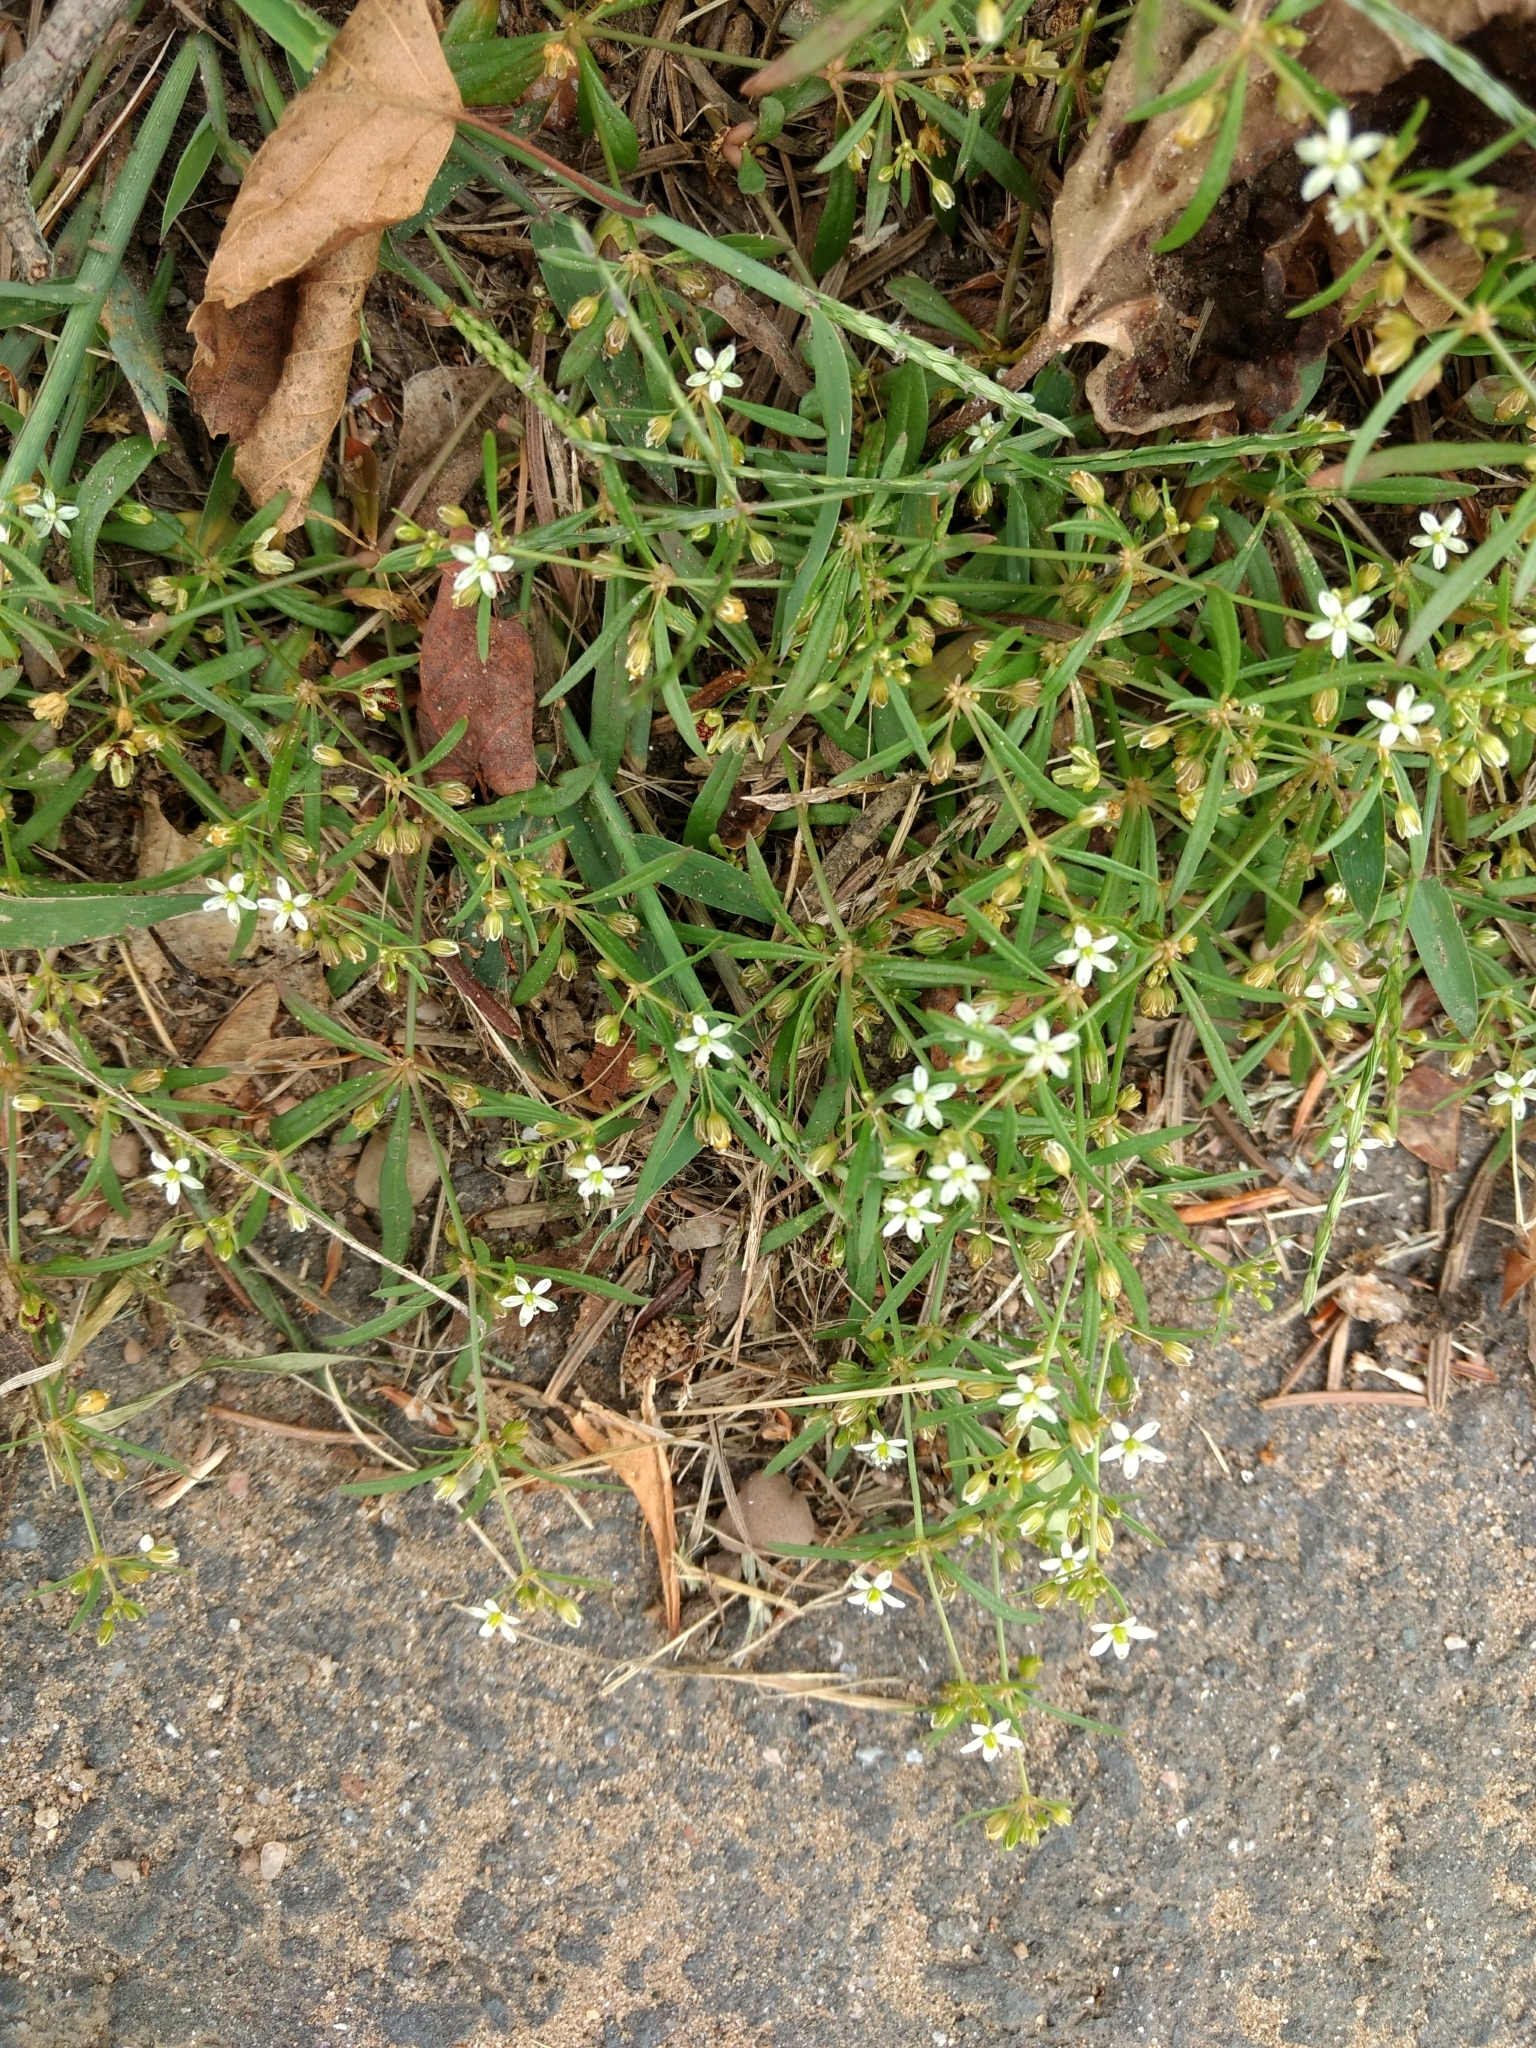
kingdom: Plantae
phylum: Tracheophyta
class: Magnoliopsida
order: Caryophyllales
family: Molluginaceae
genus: Mollugo
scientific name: Mollugo verticillata
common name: Green carpetweed
